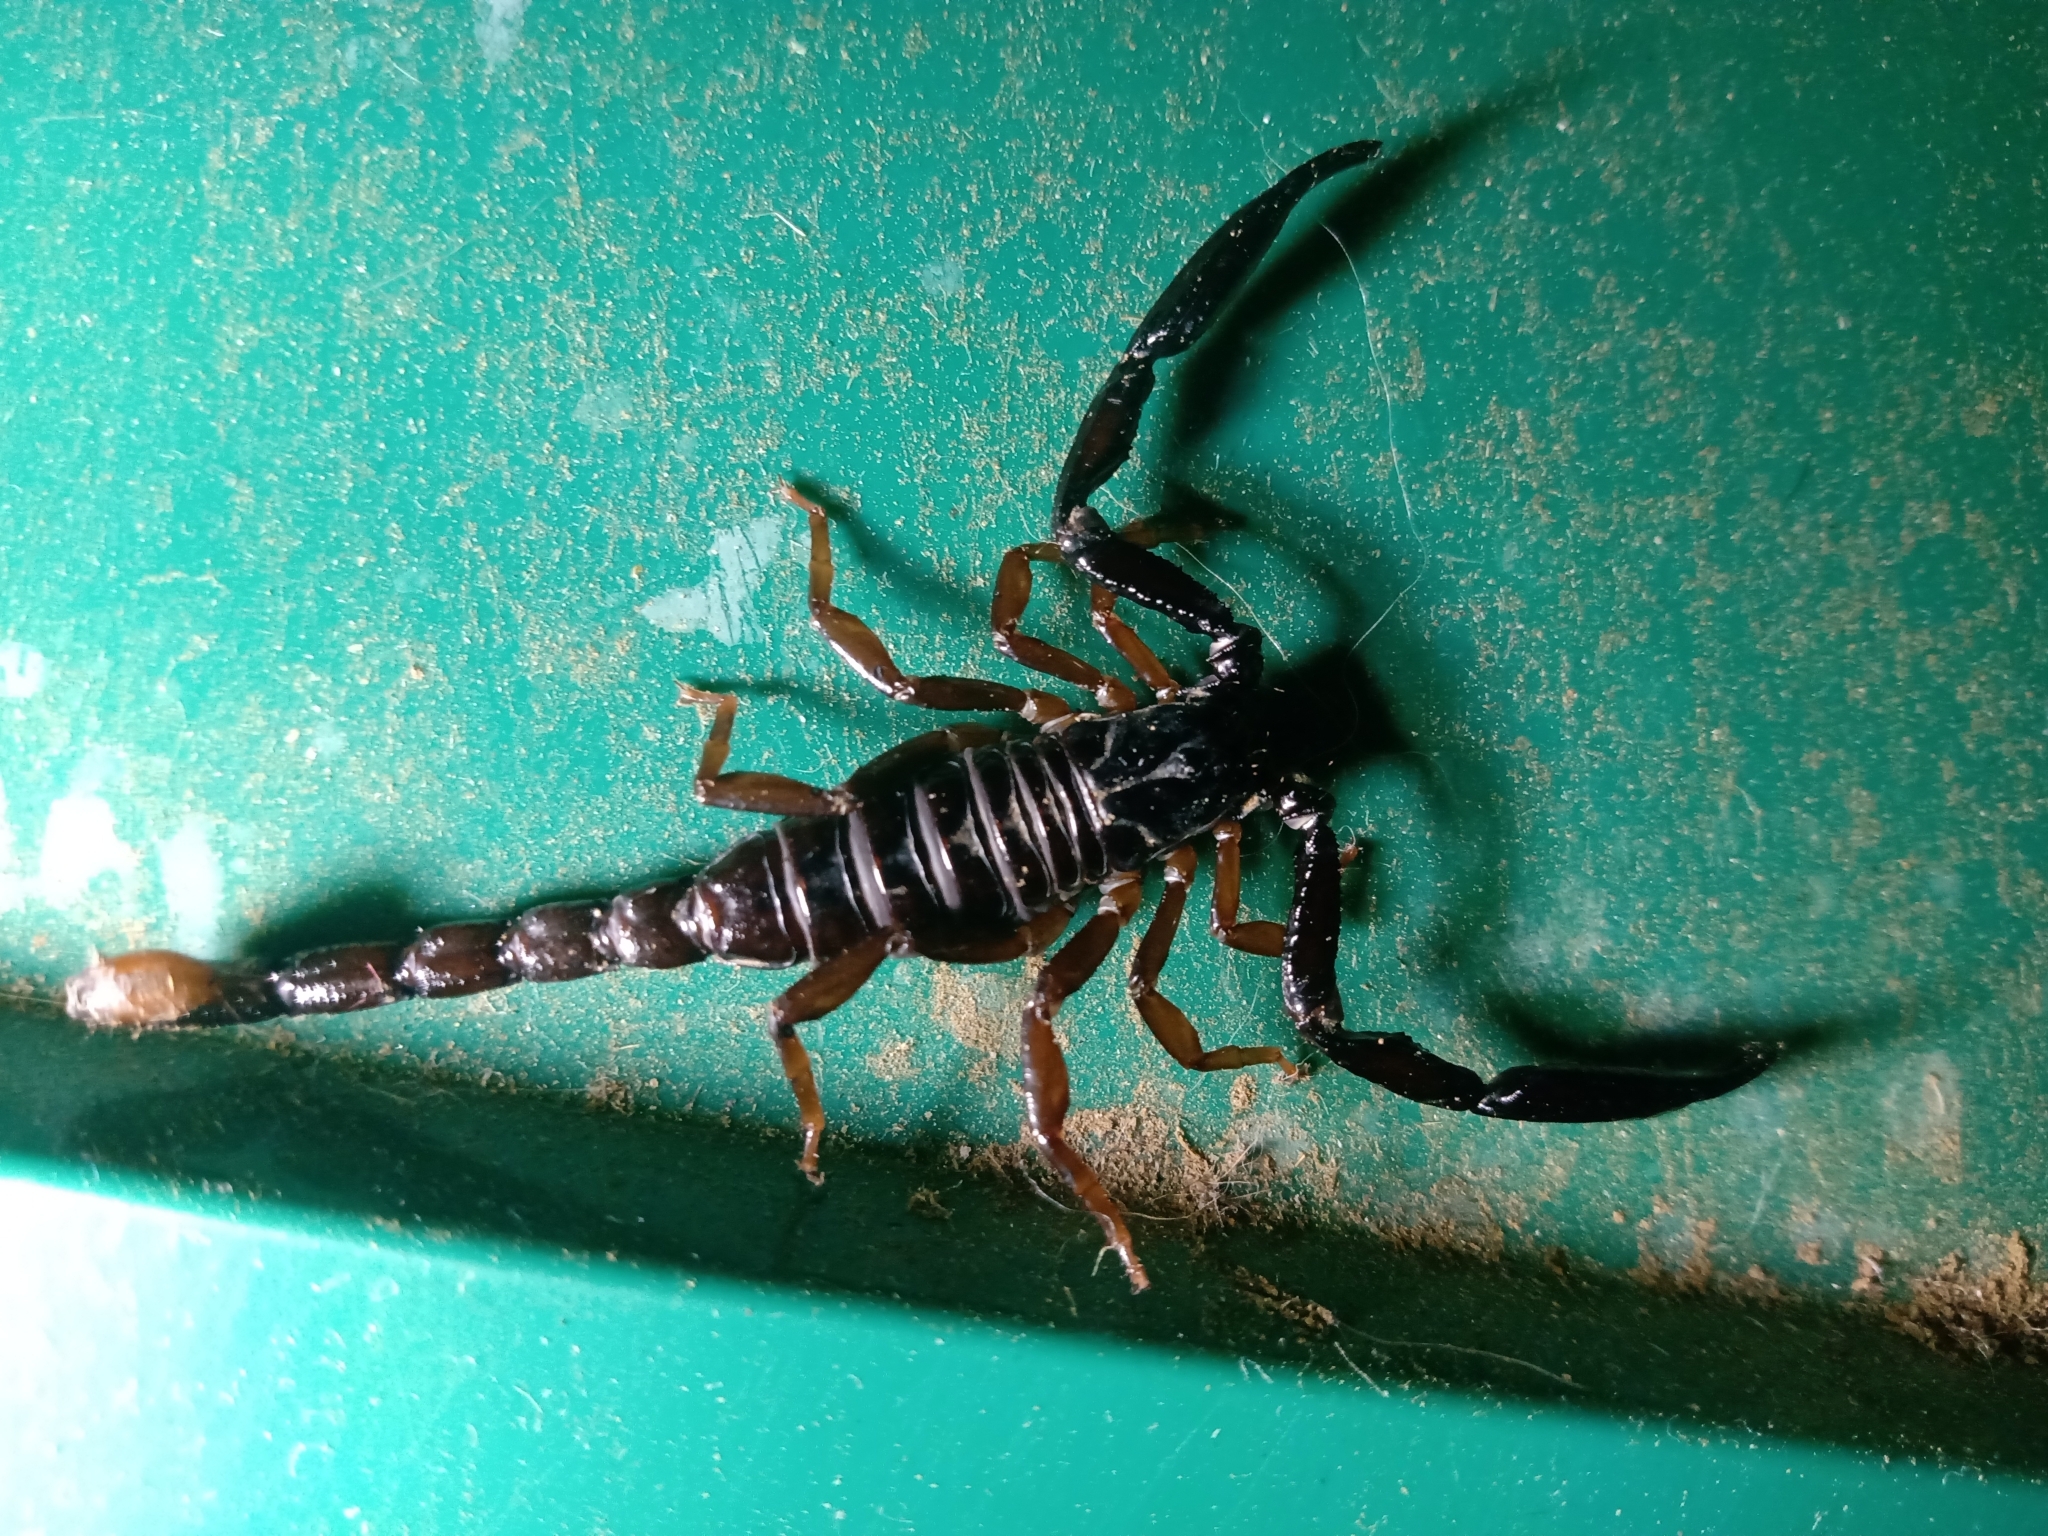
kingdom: Animalia
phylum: Arthropoda
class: Arachnida
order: Scorpiones
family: Chactidae
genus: Chactas
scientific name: Chactas vanbenedenii
